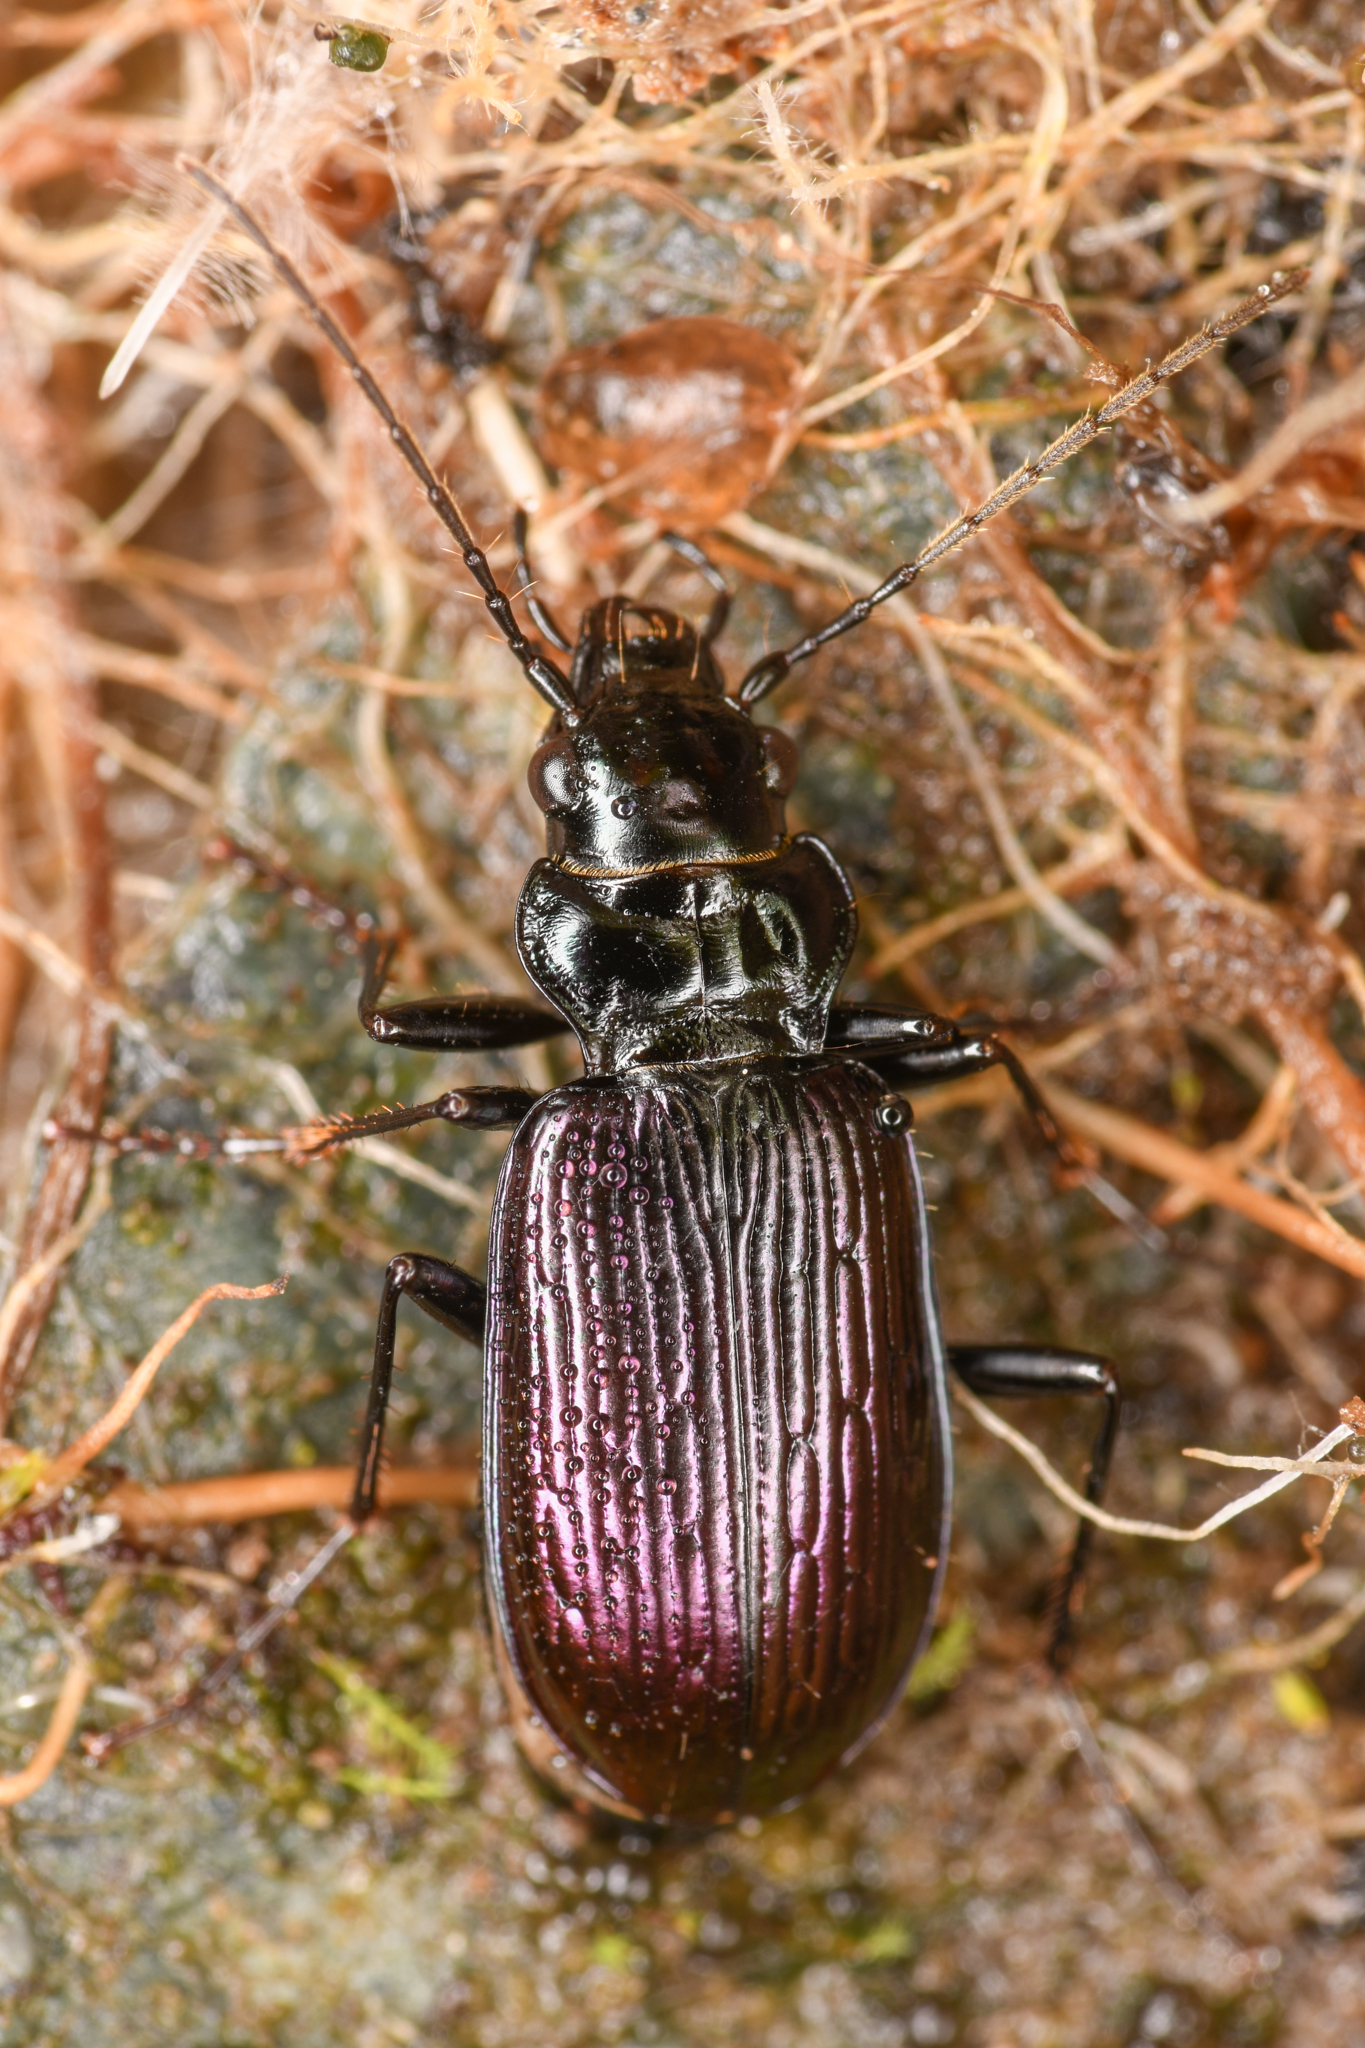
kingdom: Animalia
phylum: Arthropoda
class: Insecta
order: Coleoptera
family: Carabidae
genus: Nebria
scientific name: Nebria piperi
